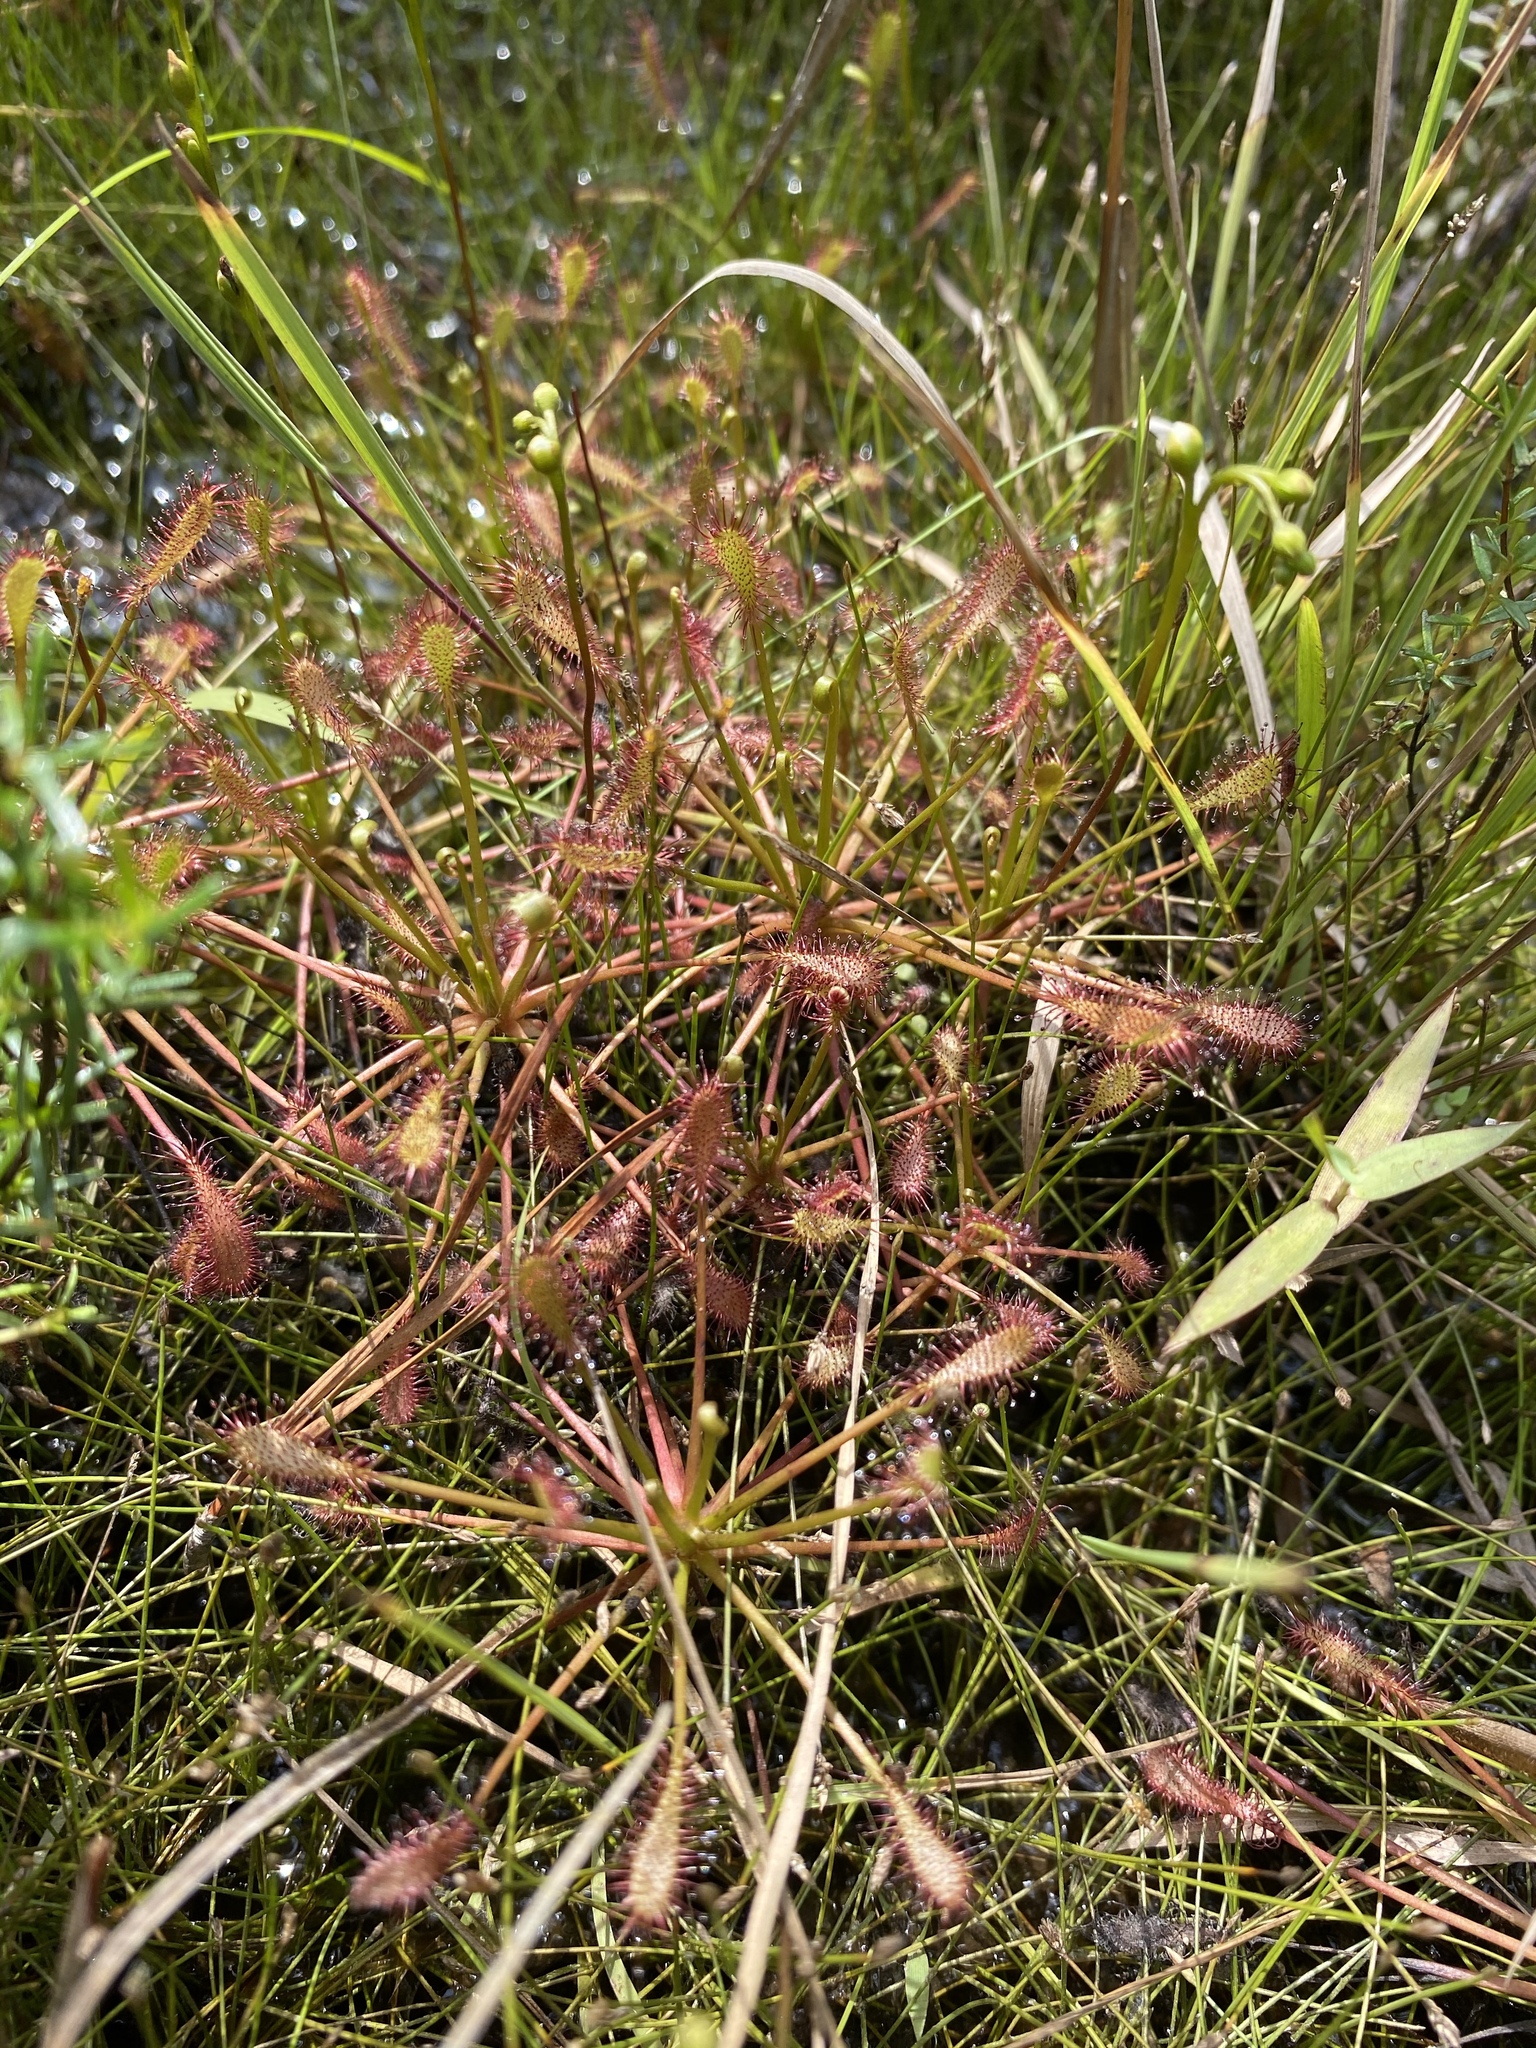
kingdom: Plantae
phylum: Tracheophyta
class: Magnoliopsida
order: Caryophyllales
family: Droseraceae
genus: Drosera
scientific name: Drosera intermedia
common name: Oblong-leaved sundew
